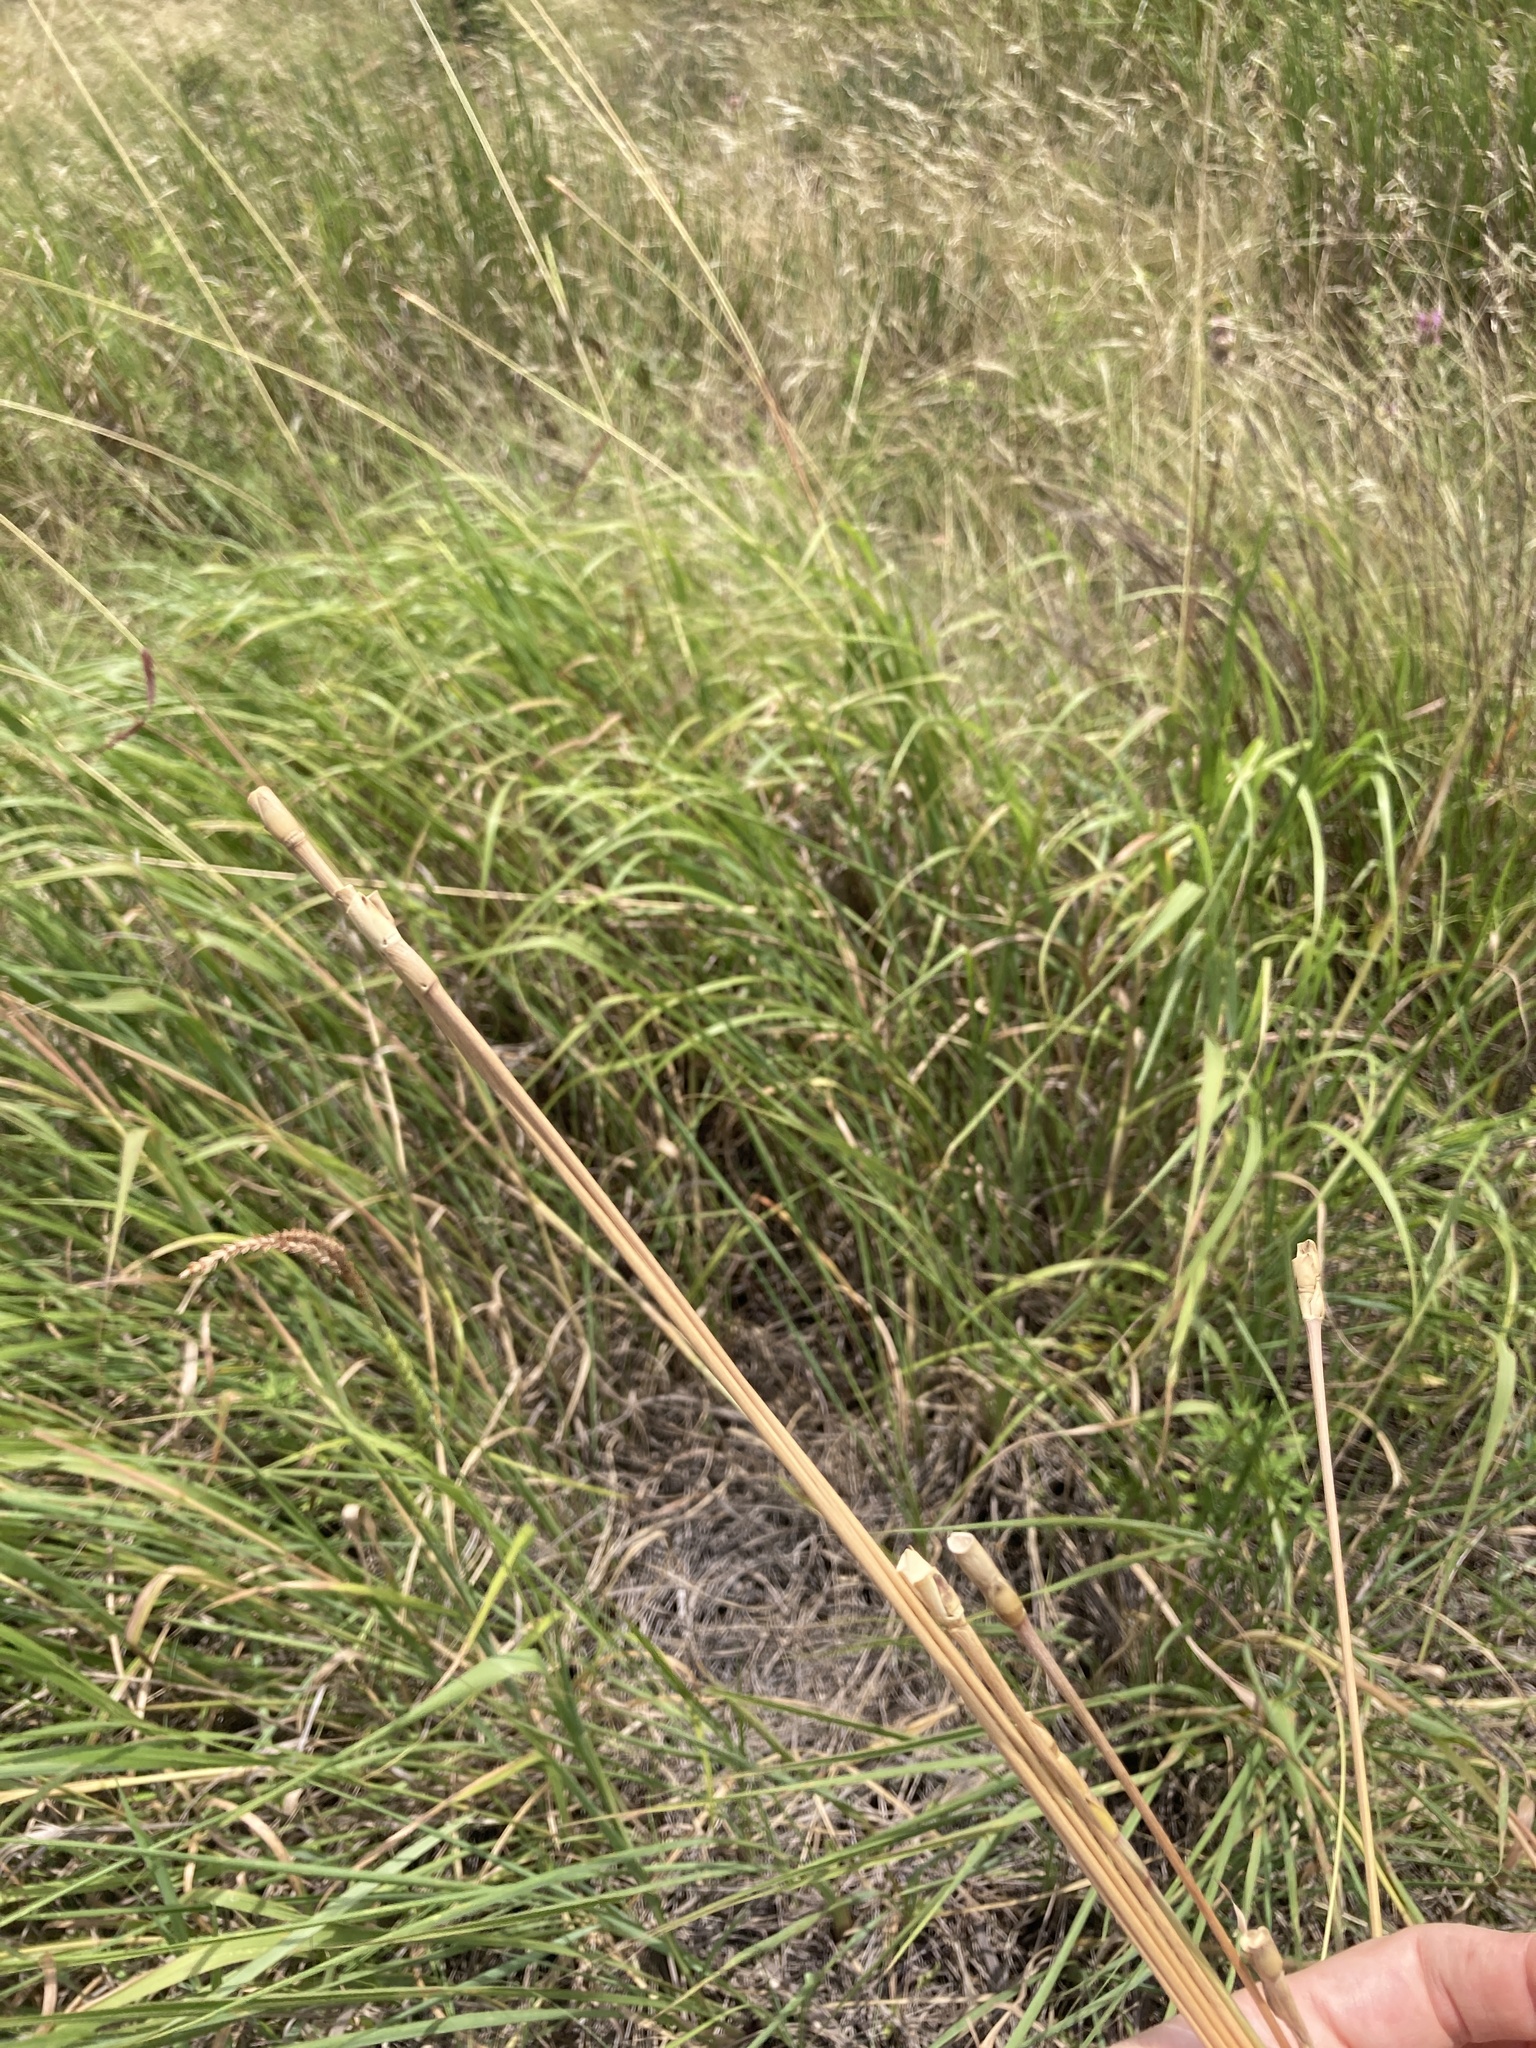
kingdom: Plantae
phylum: Tracheophyta
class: Liliopsida
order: Poales
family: Poaceae
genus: Tripsacum
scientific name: Tripsacum dactyloides
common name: Buffalo-grass
